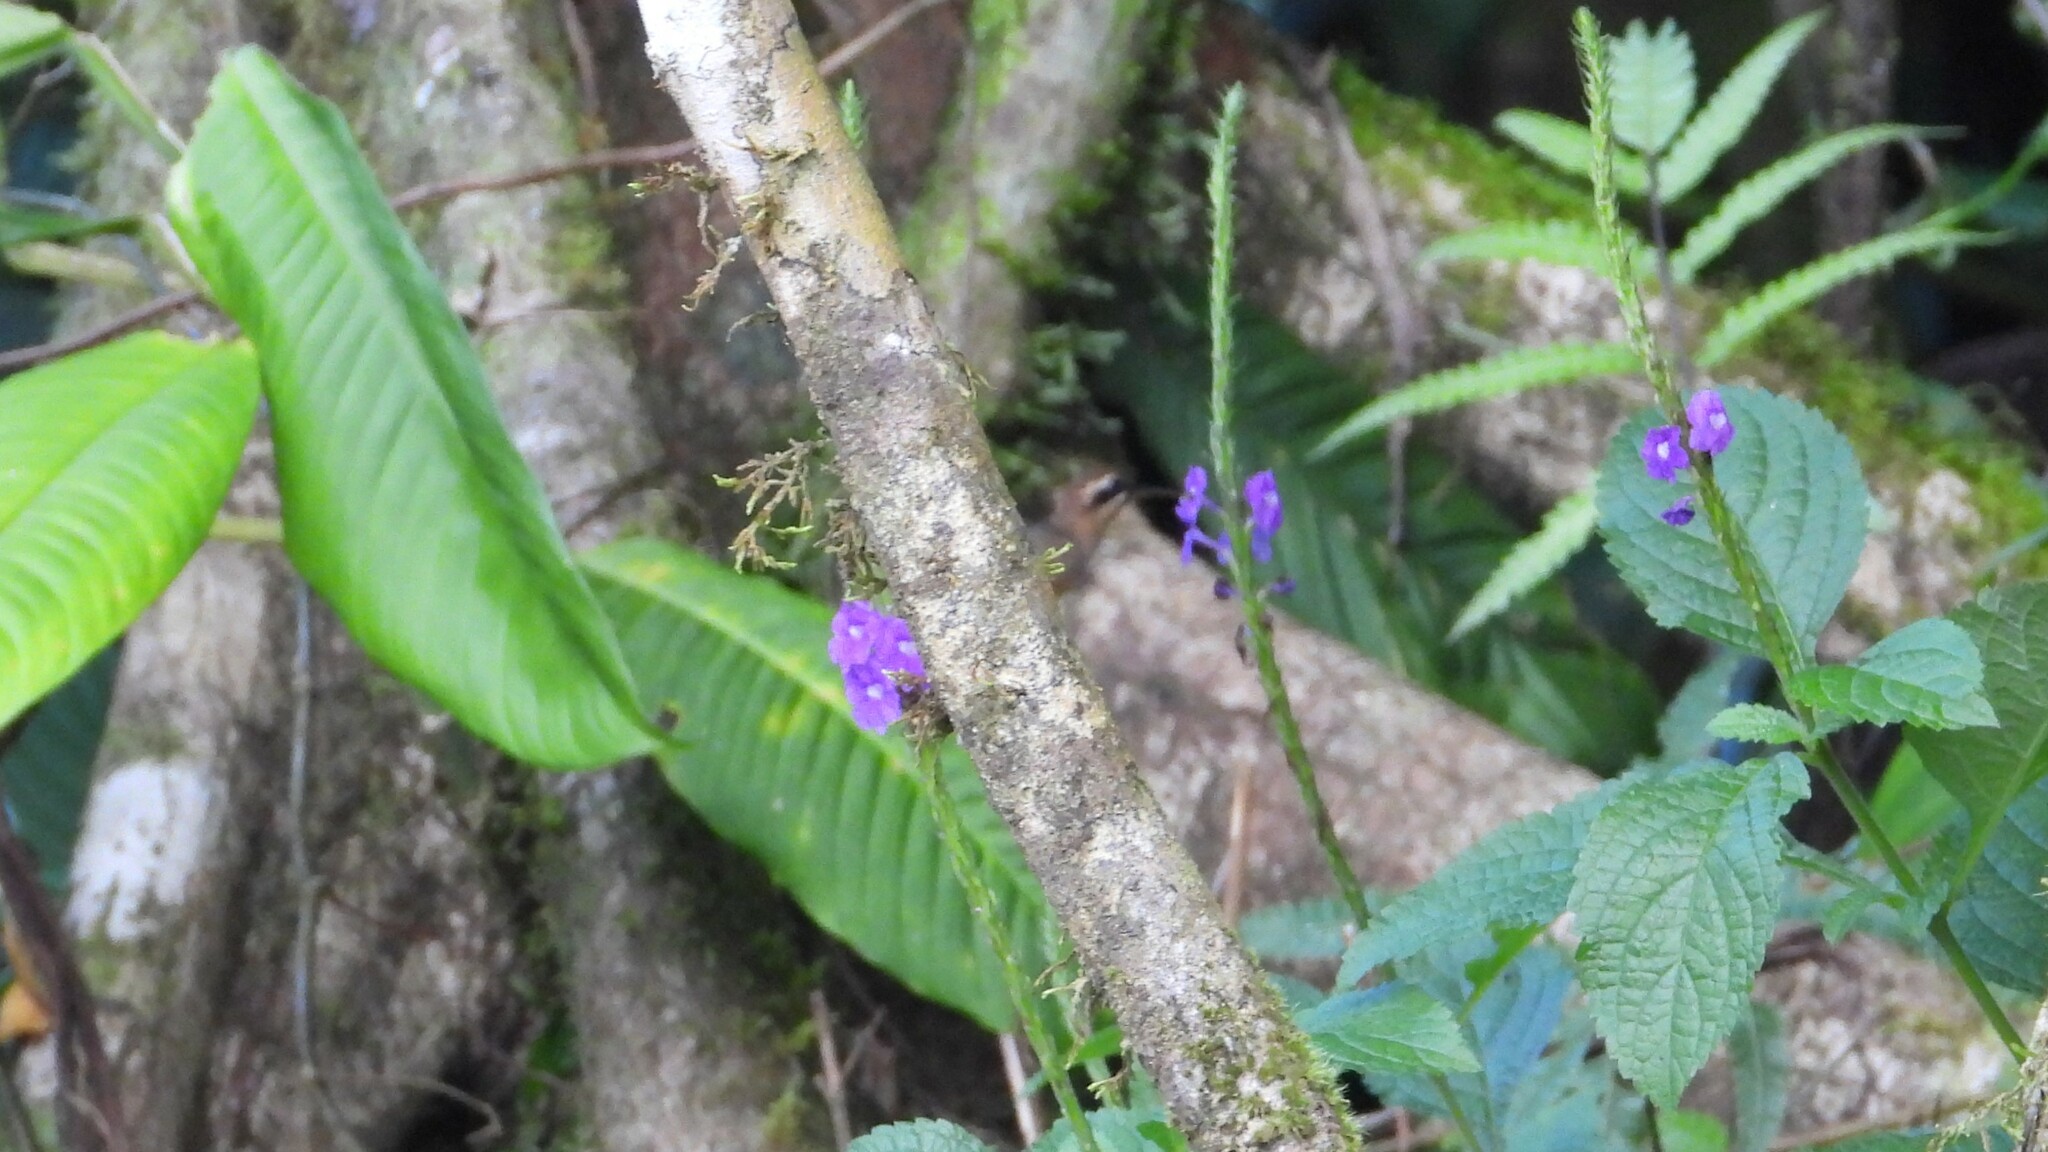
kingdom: Animalia
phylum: Chordata
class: Aves
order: Apodiformes
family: Trochilidae
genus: Phaethornis
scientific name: Phaethornis striigularis
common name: Stripe-throated hermit
